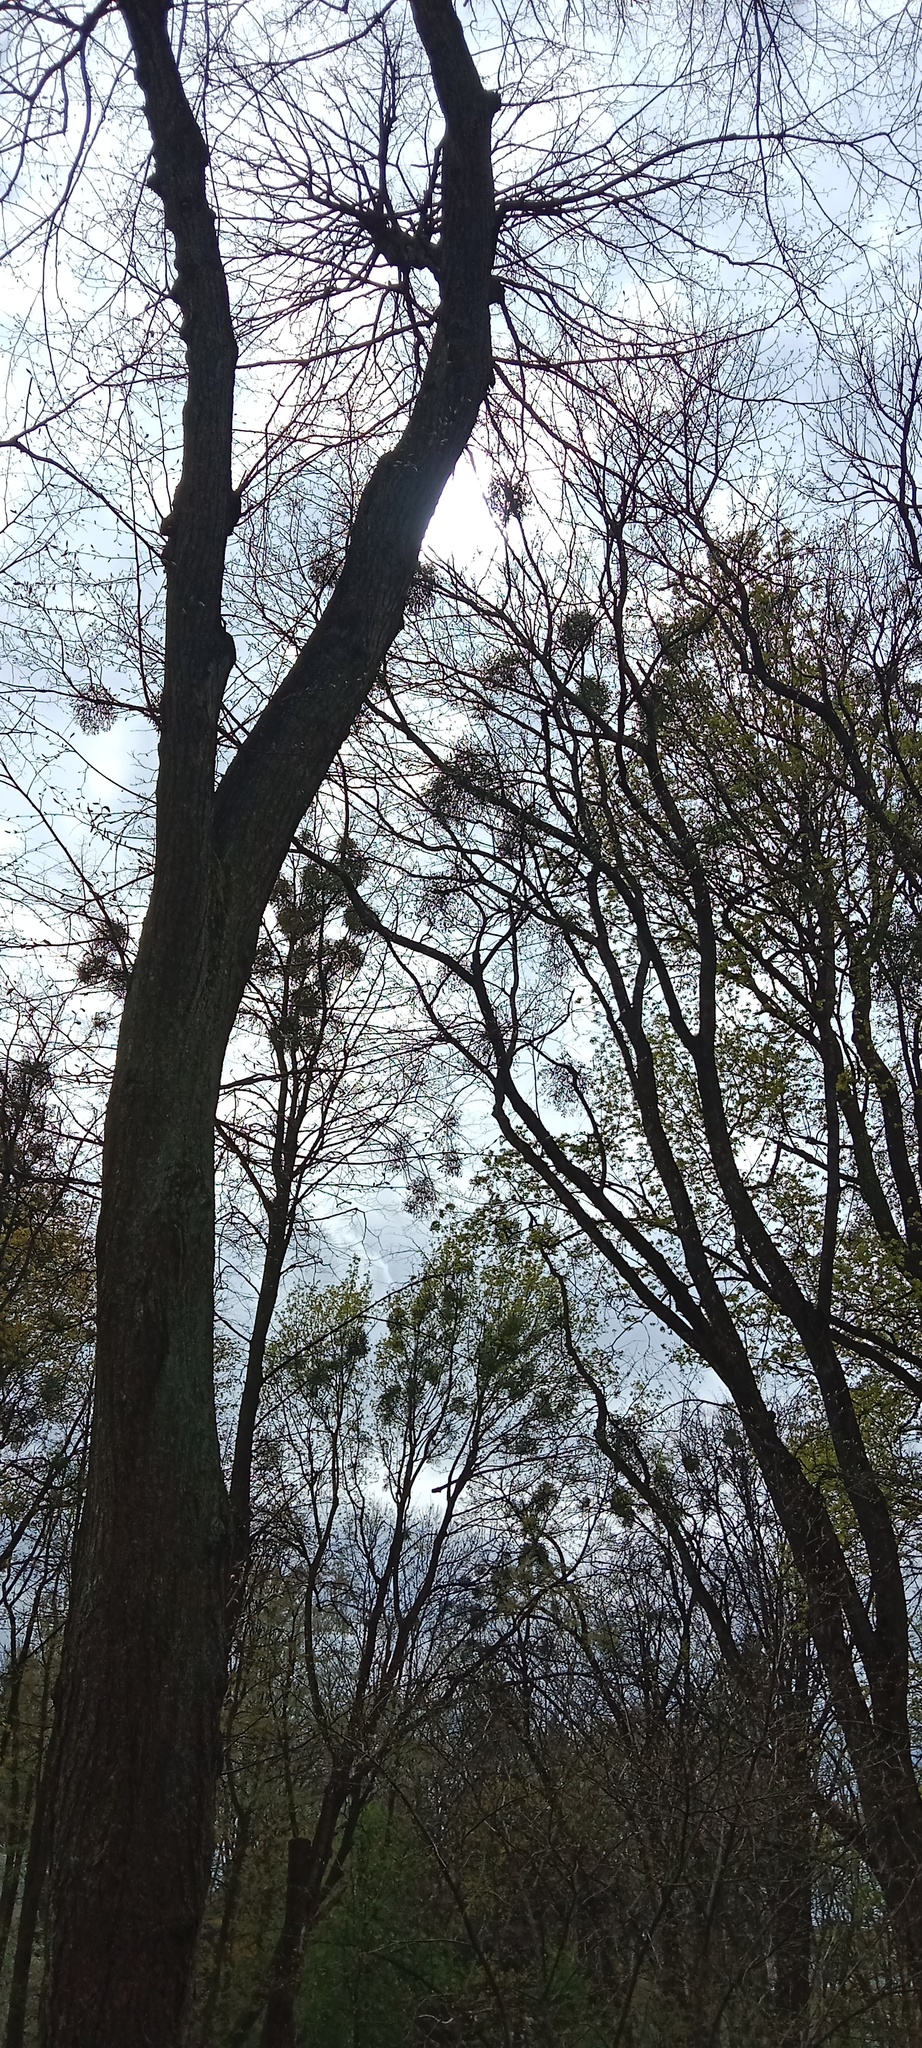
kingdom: Plantae
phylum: Tracheophyta
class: Magnoliopsida
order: Santalales
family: Viscaceae
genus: Viscum
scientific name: Viscum album
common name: Mistletoe
